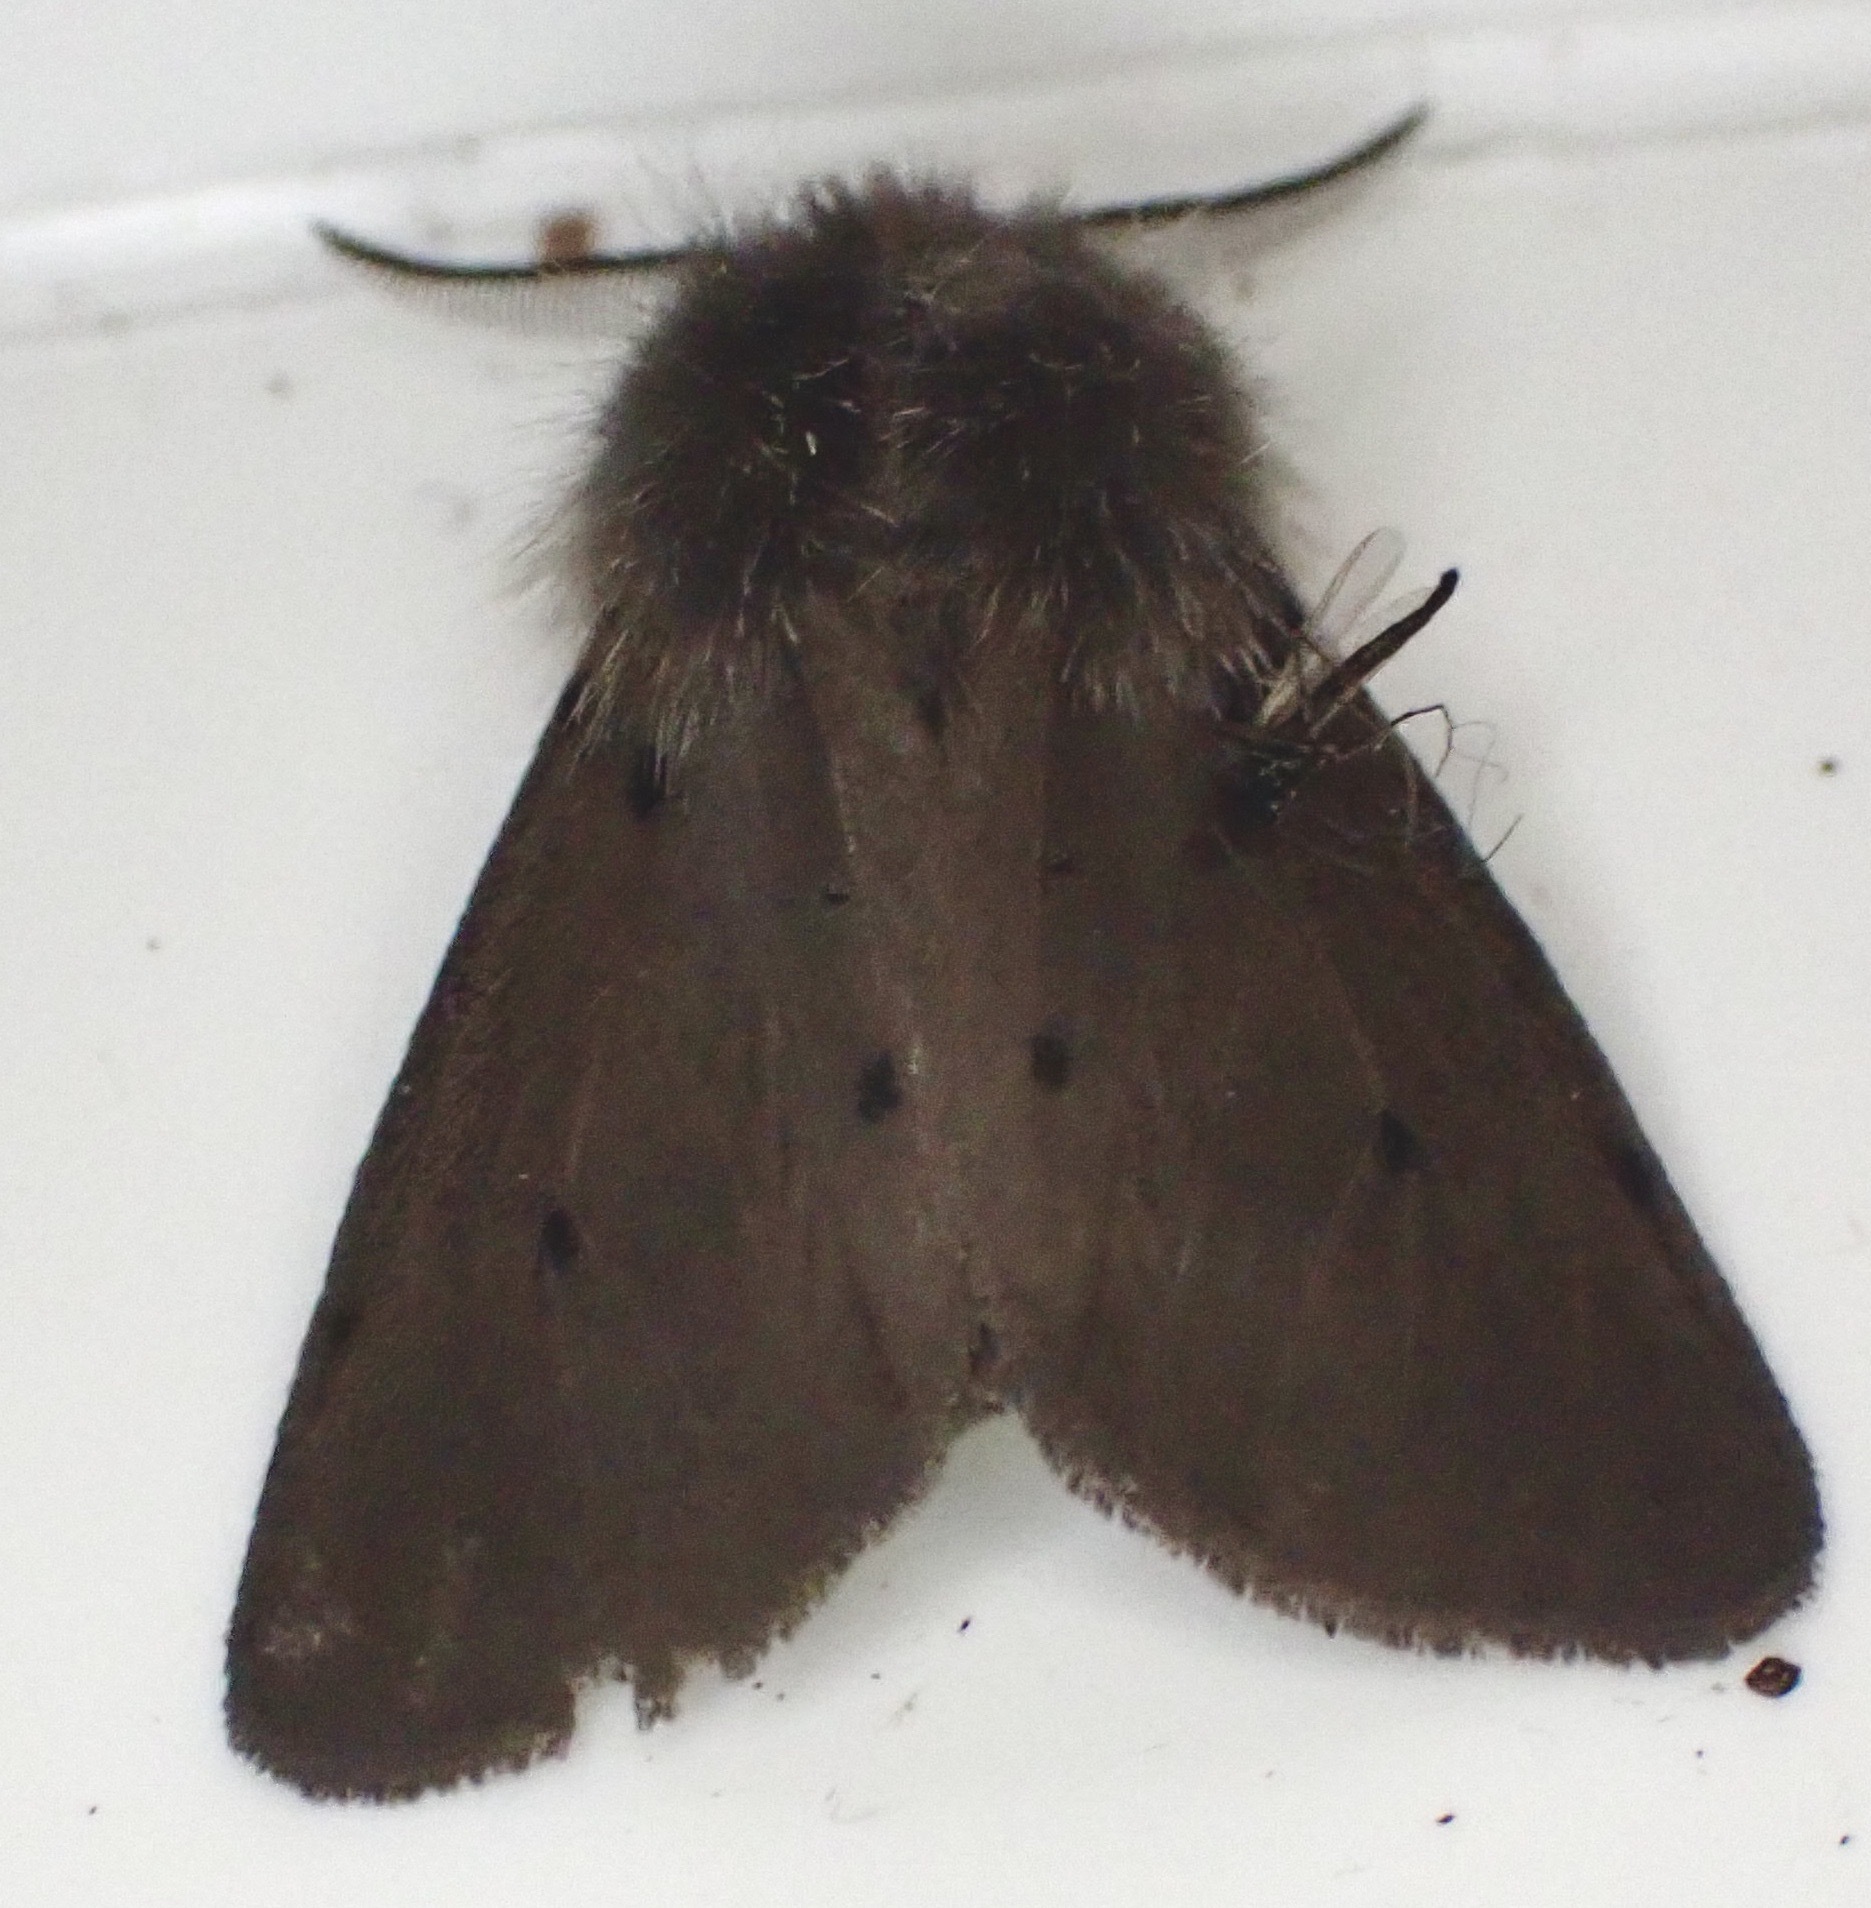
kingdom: Animalia
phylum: Arthropoda
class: Insecta
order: Lepidoptera
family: Erebidae
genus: Diaphora
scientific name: Diaphora mendica
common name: Muslin moth
